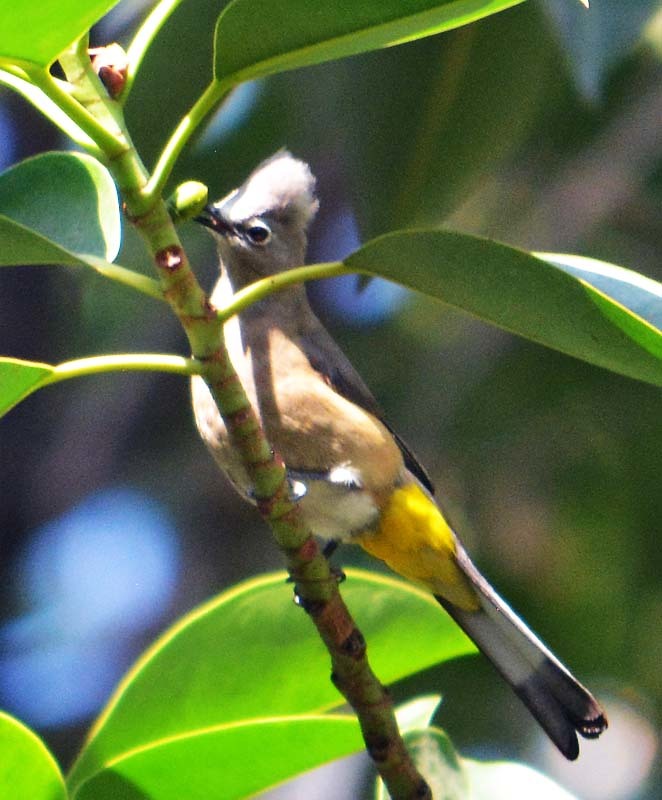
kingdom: Animalia
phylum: Chordata
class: Aves
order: Passeriformes
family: Ptilogonatidae
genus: Ptilogonys
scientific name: Ptilogonys cinereus
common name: Gray silky-flycatcher
